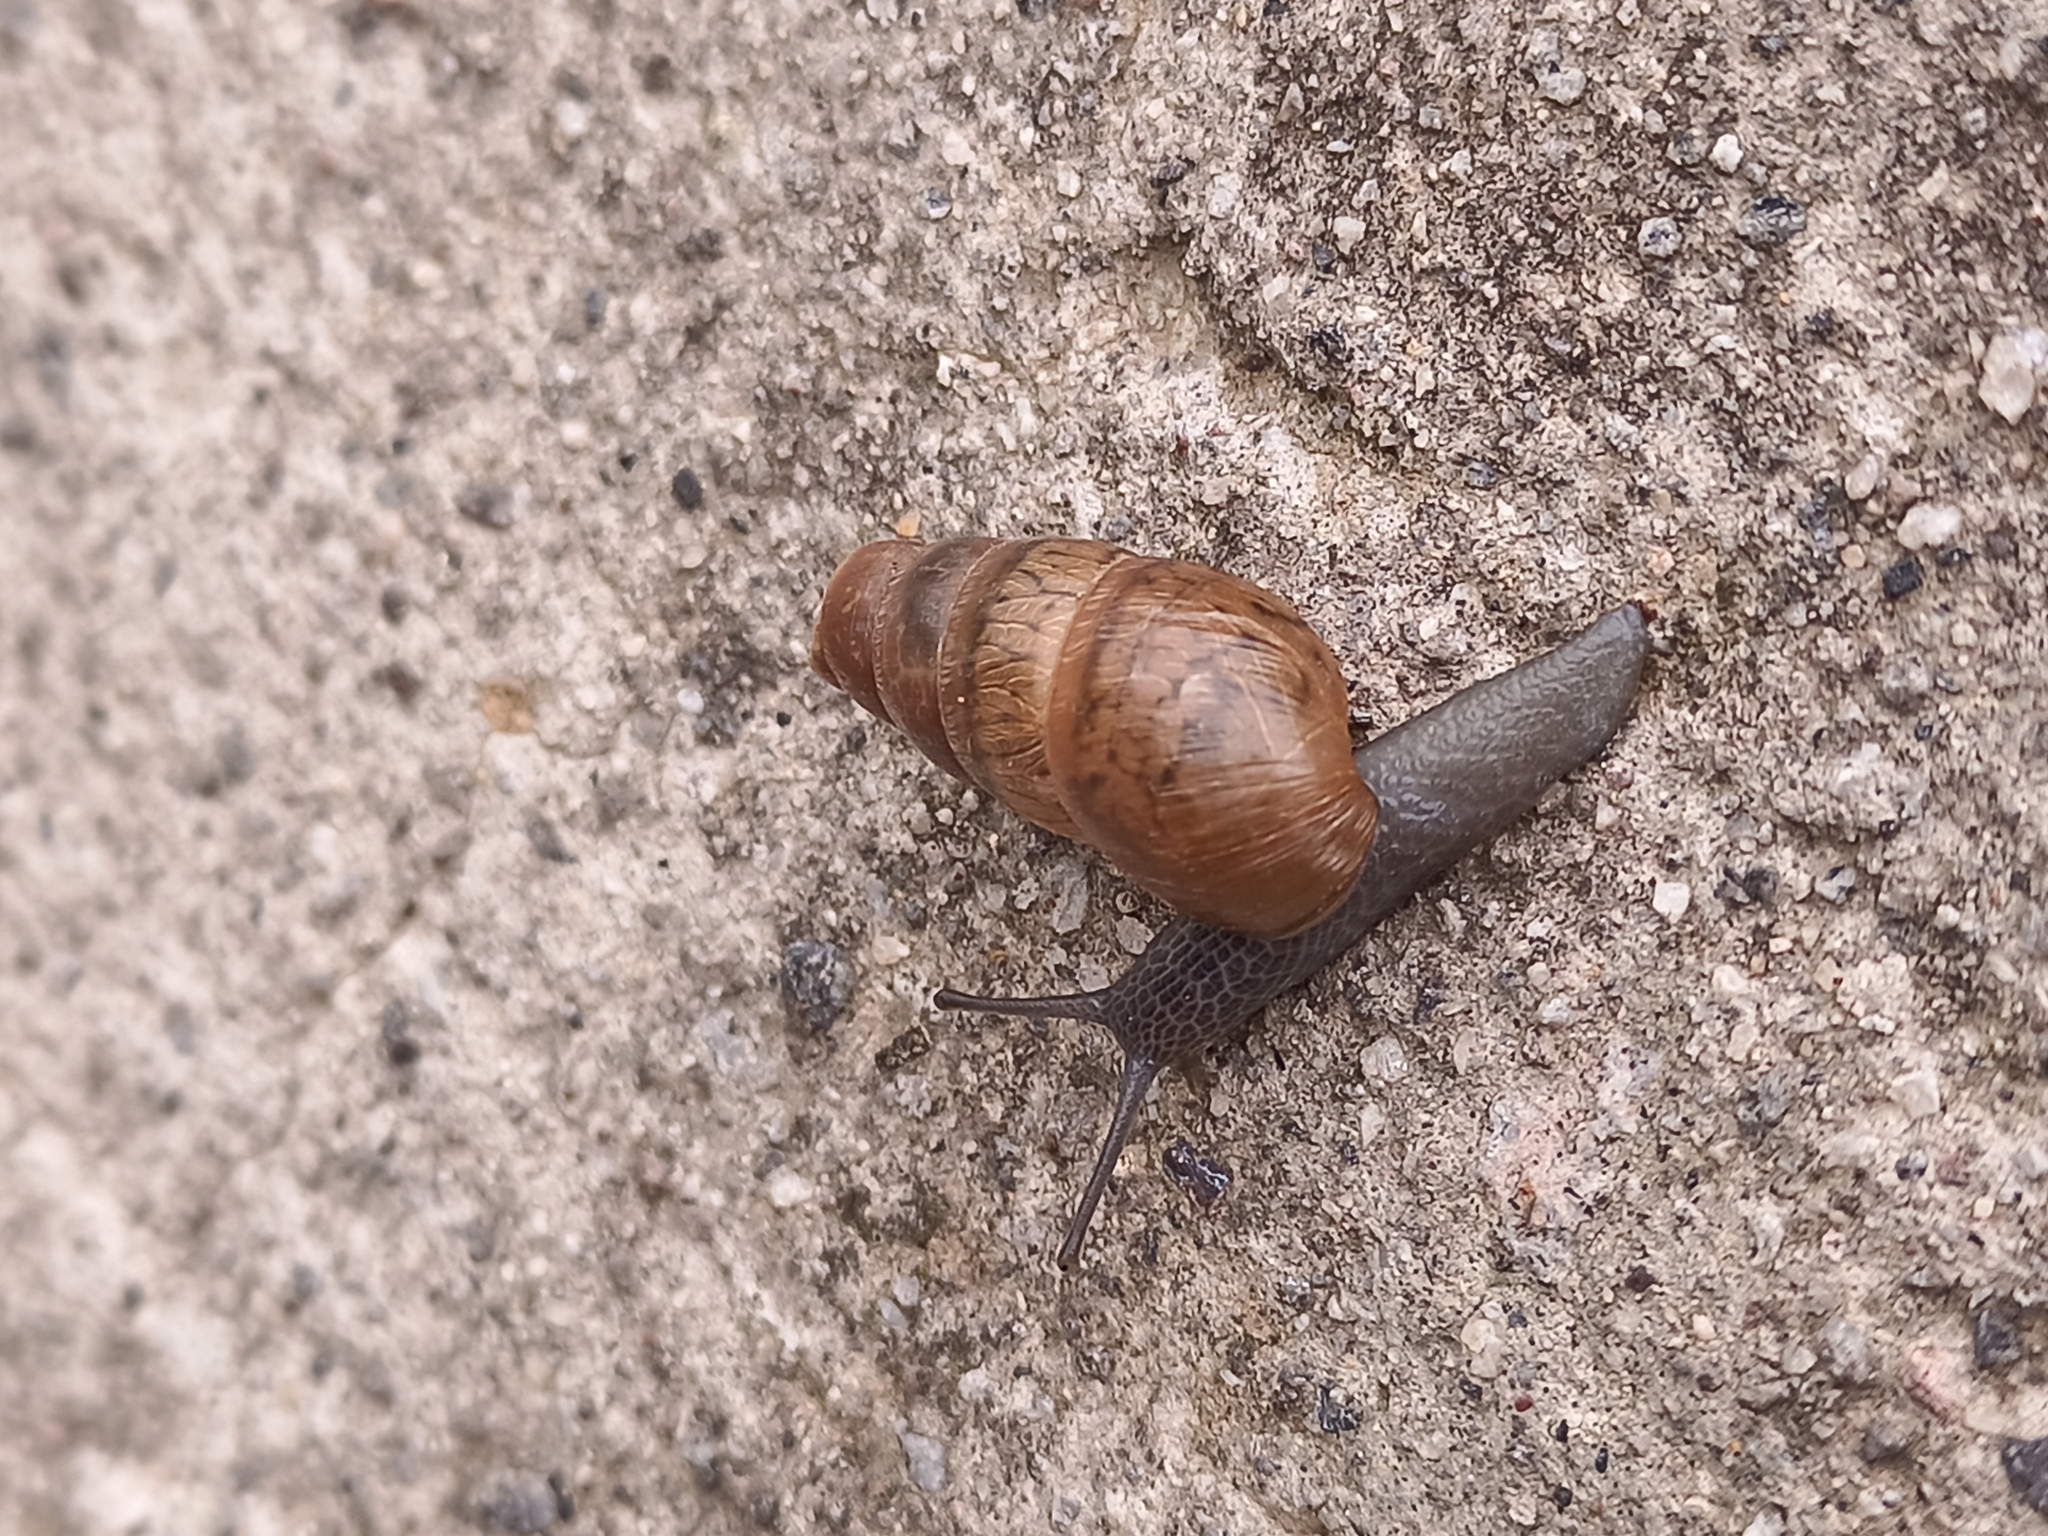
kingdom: Animalia
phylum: Mollusca
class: Gastropoda
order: Stylommatophora
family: Achatinidae
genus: Rumina
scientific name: Rumina decollata
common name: Decollate snail
